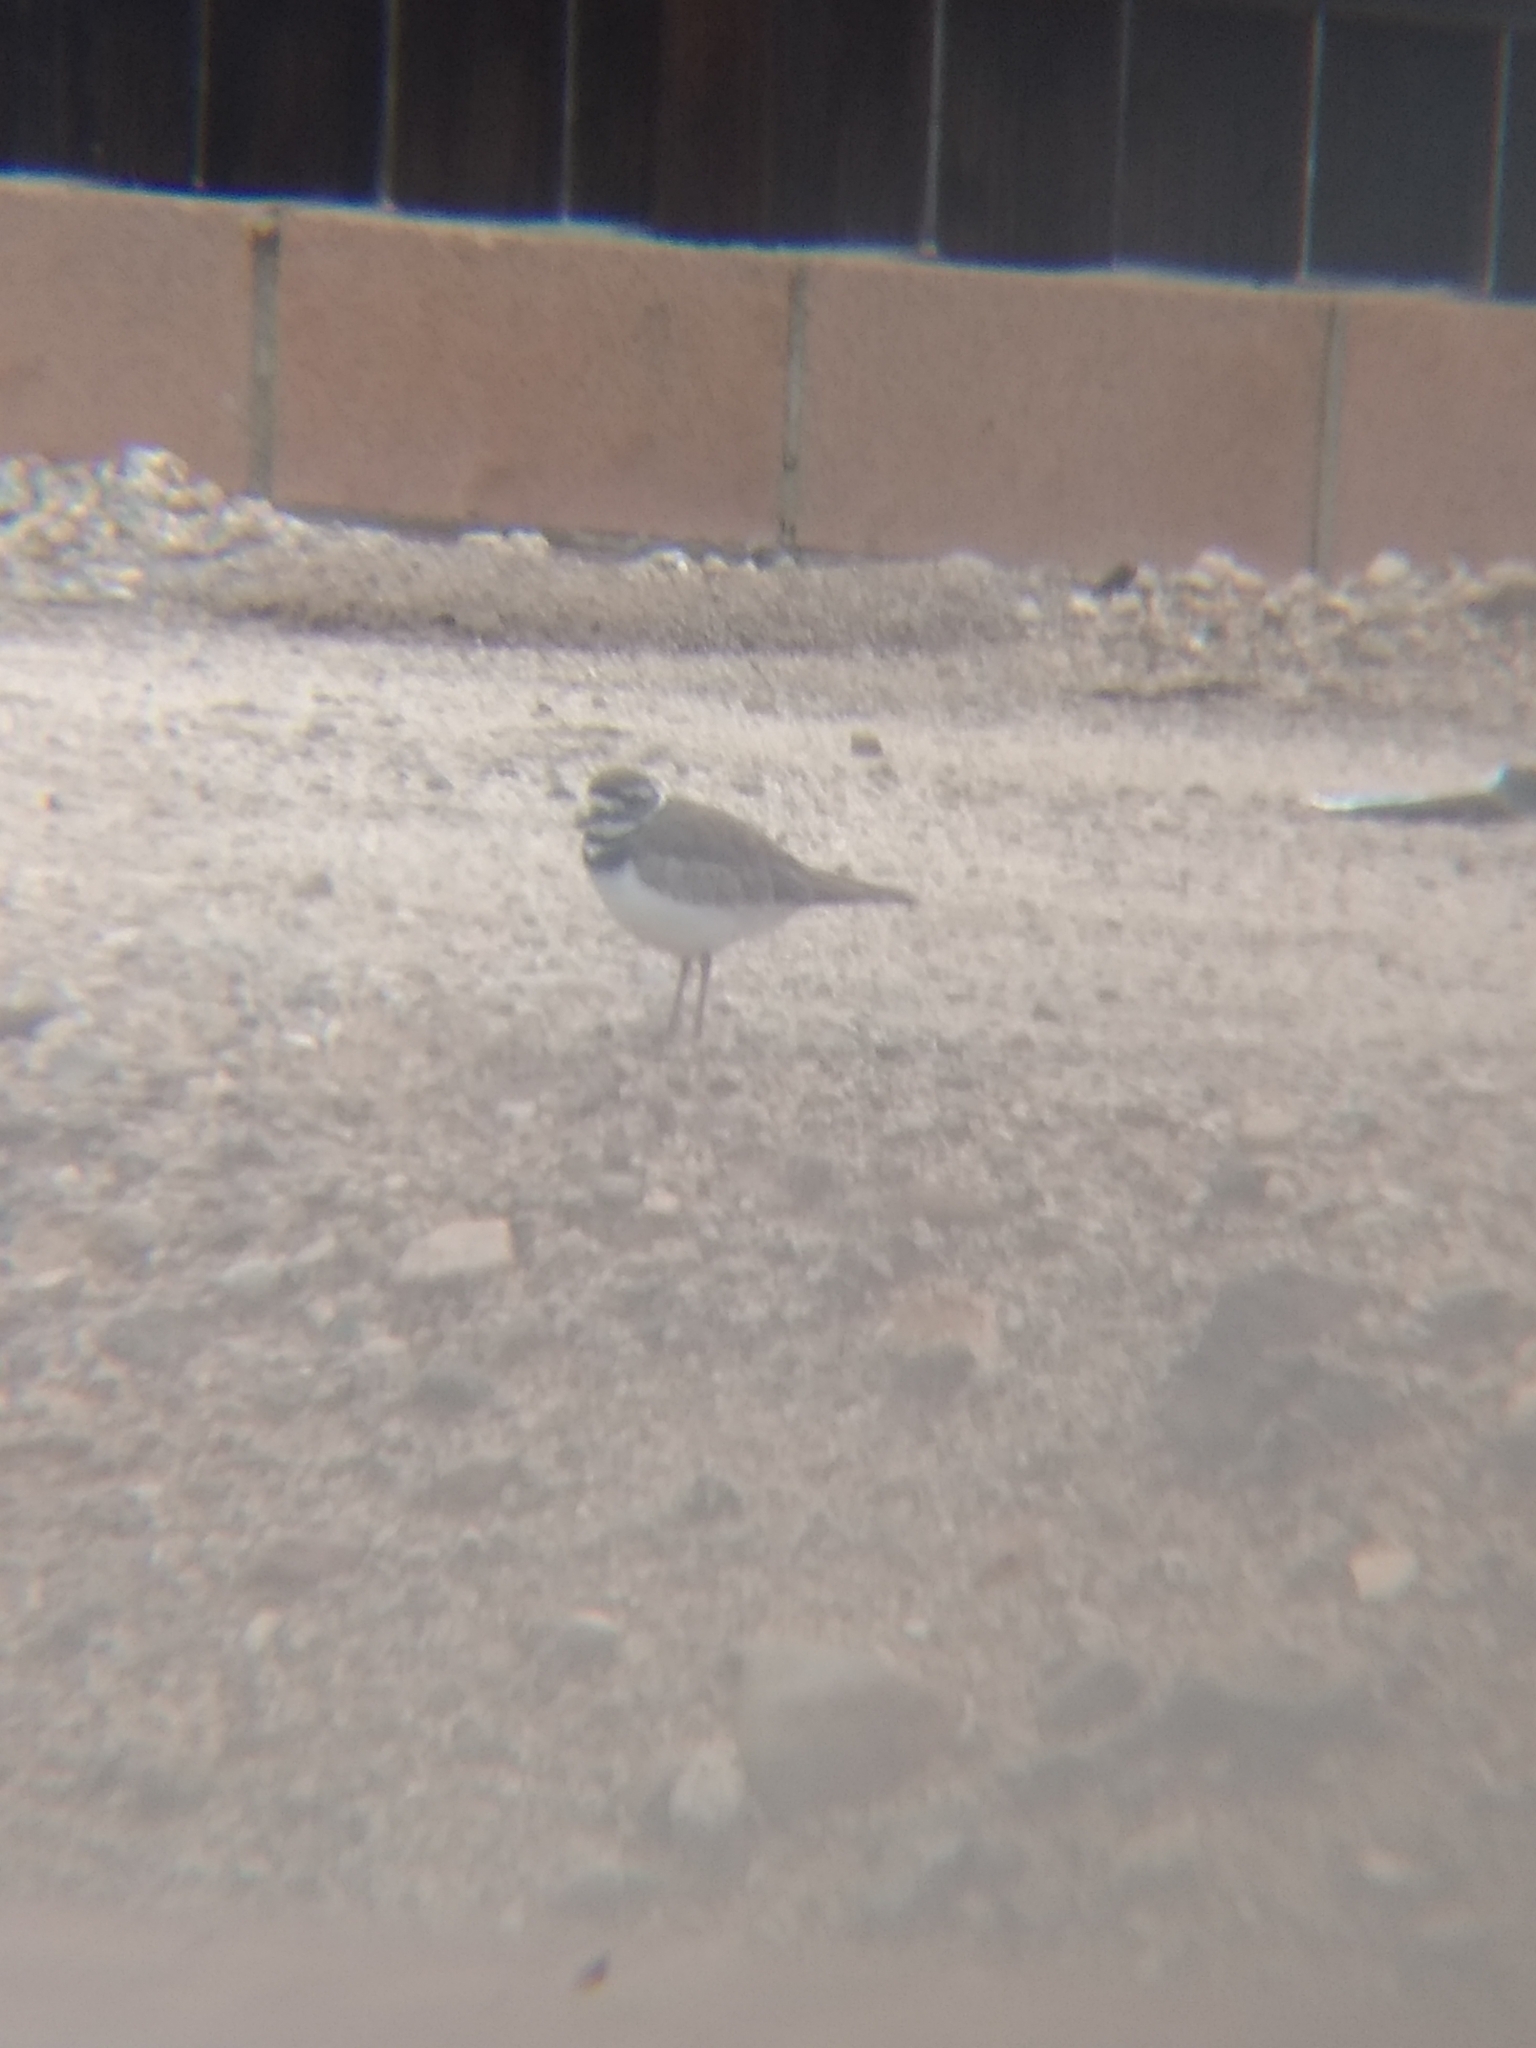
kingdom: Animalia
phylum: Chordata
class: Aves
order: Charadriiformes
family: Charadriidae
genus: Charadrius
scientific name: Charadrius vociferus
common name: Killdeer
